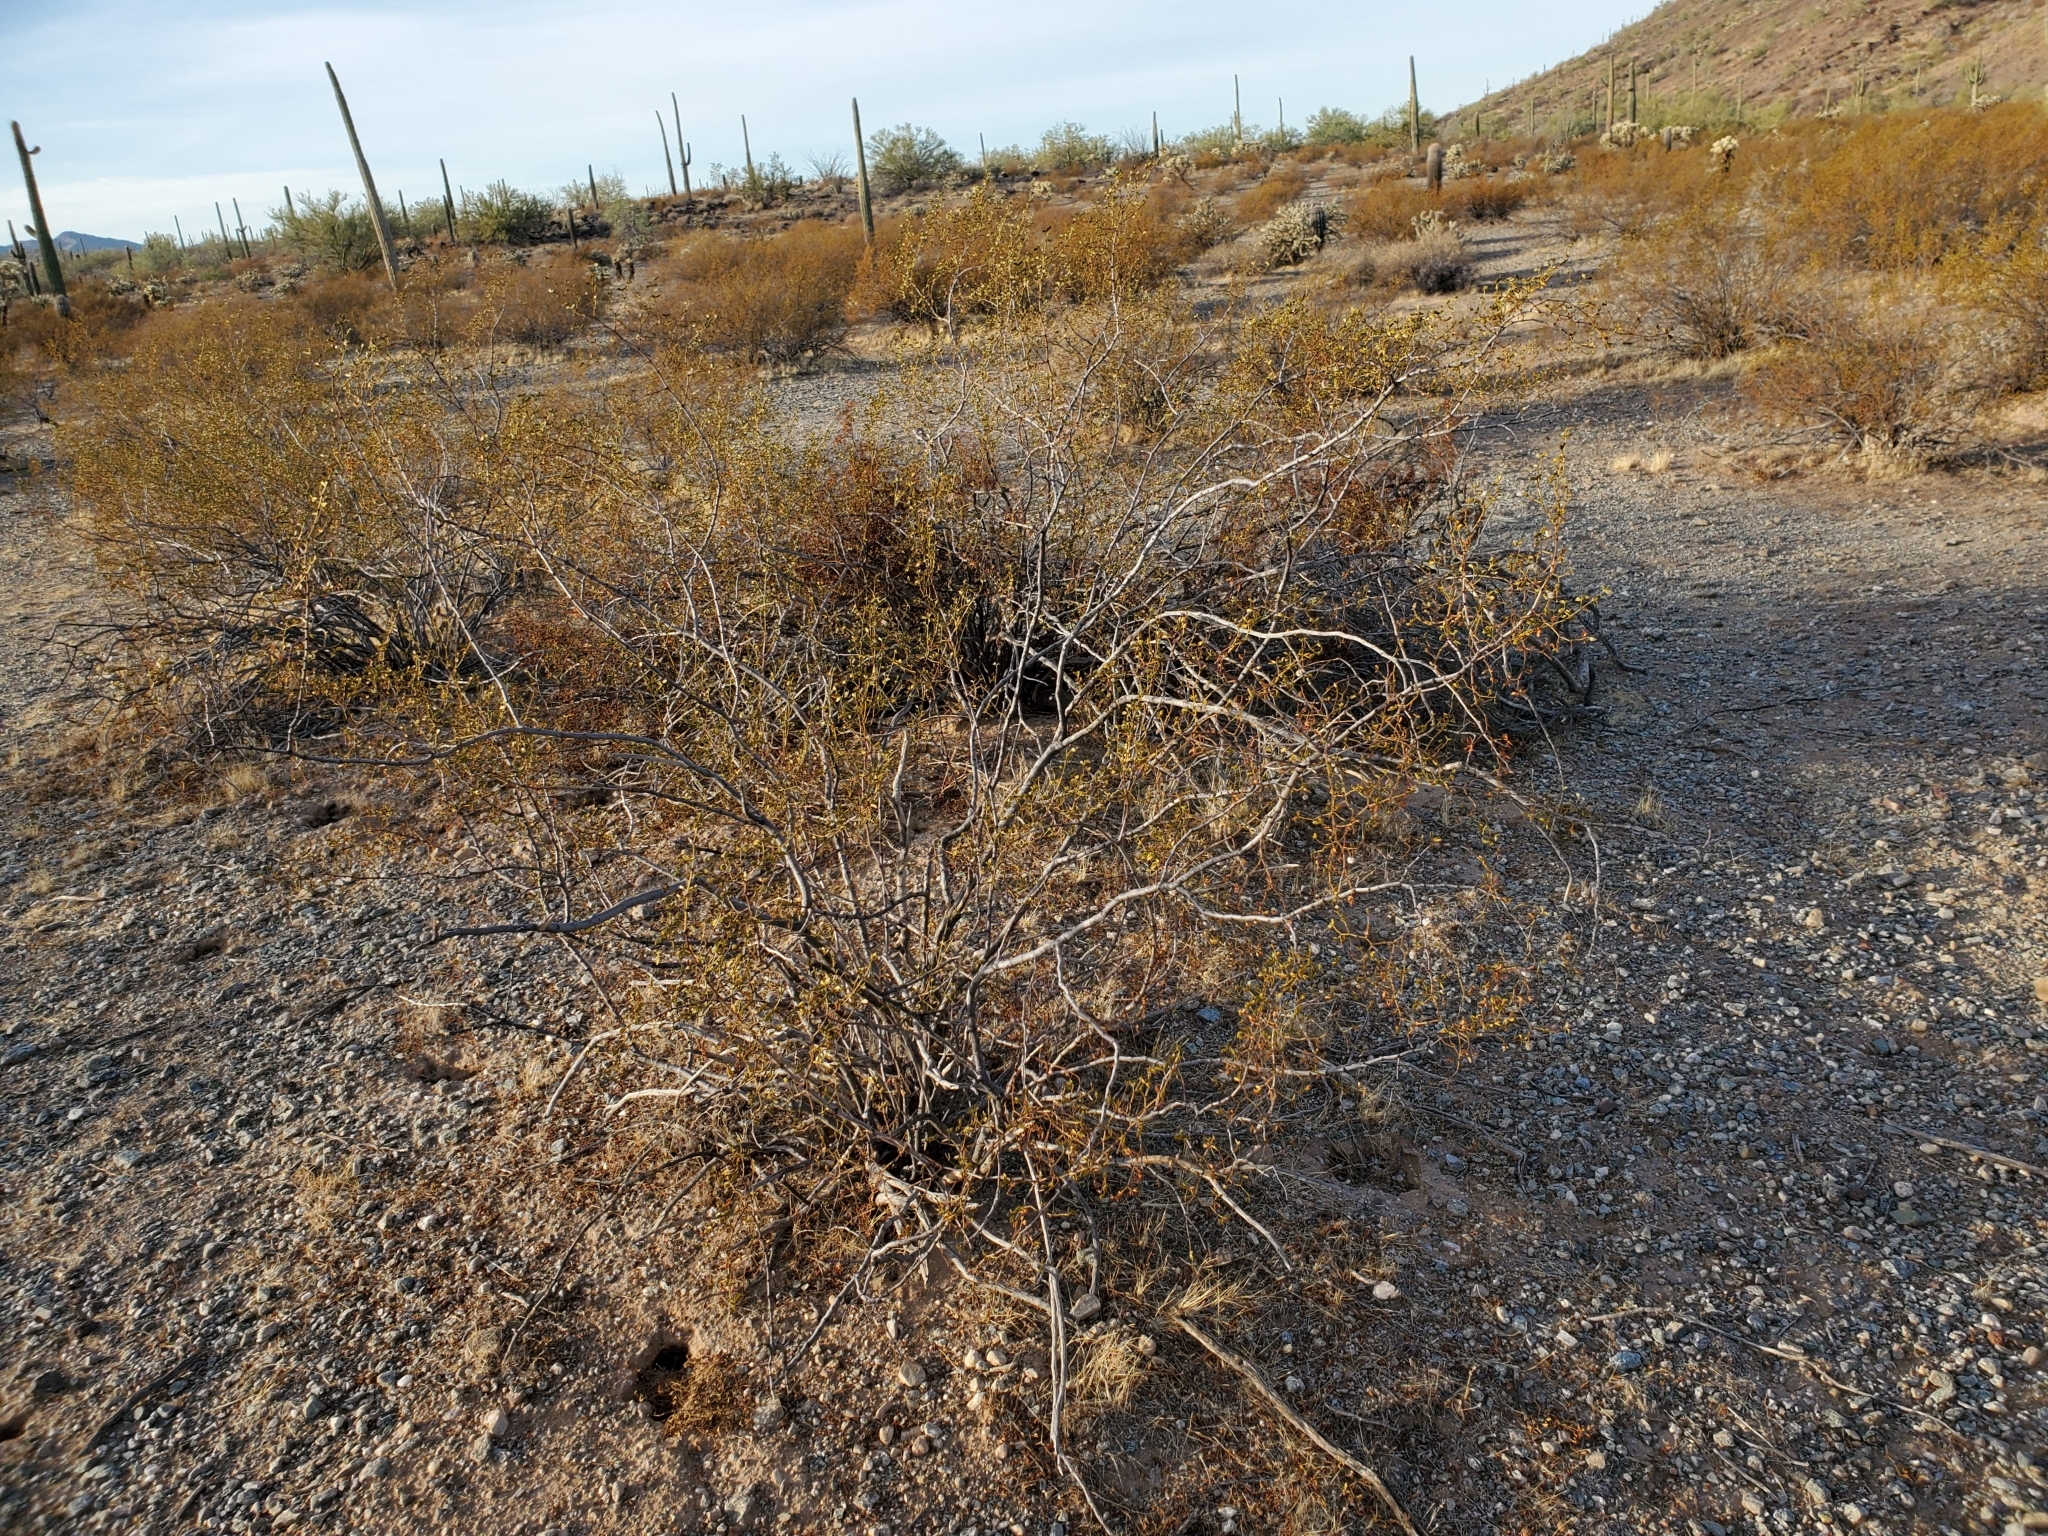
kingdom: Plantae
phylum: Tracheophyta
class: Magnoliopsida
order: Zygophyllales
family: Zygophyllaceae
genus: Larrea
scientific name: Larrea tridentata
